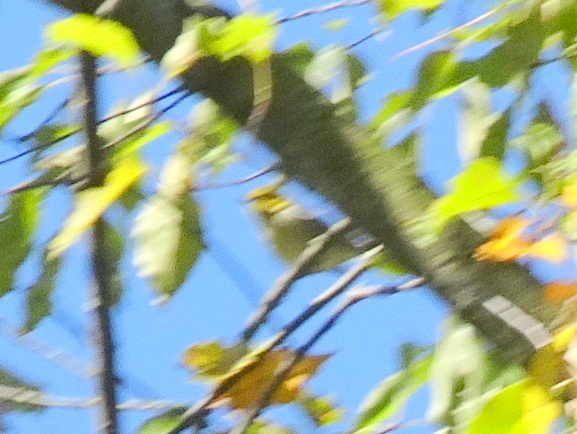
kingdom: Animalia
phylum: Chordata
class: Aves
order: Passeriformes
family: Parulidae
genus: Setophaga
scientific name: Setophaga virens
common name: Black-throated green warbler
